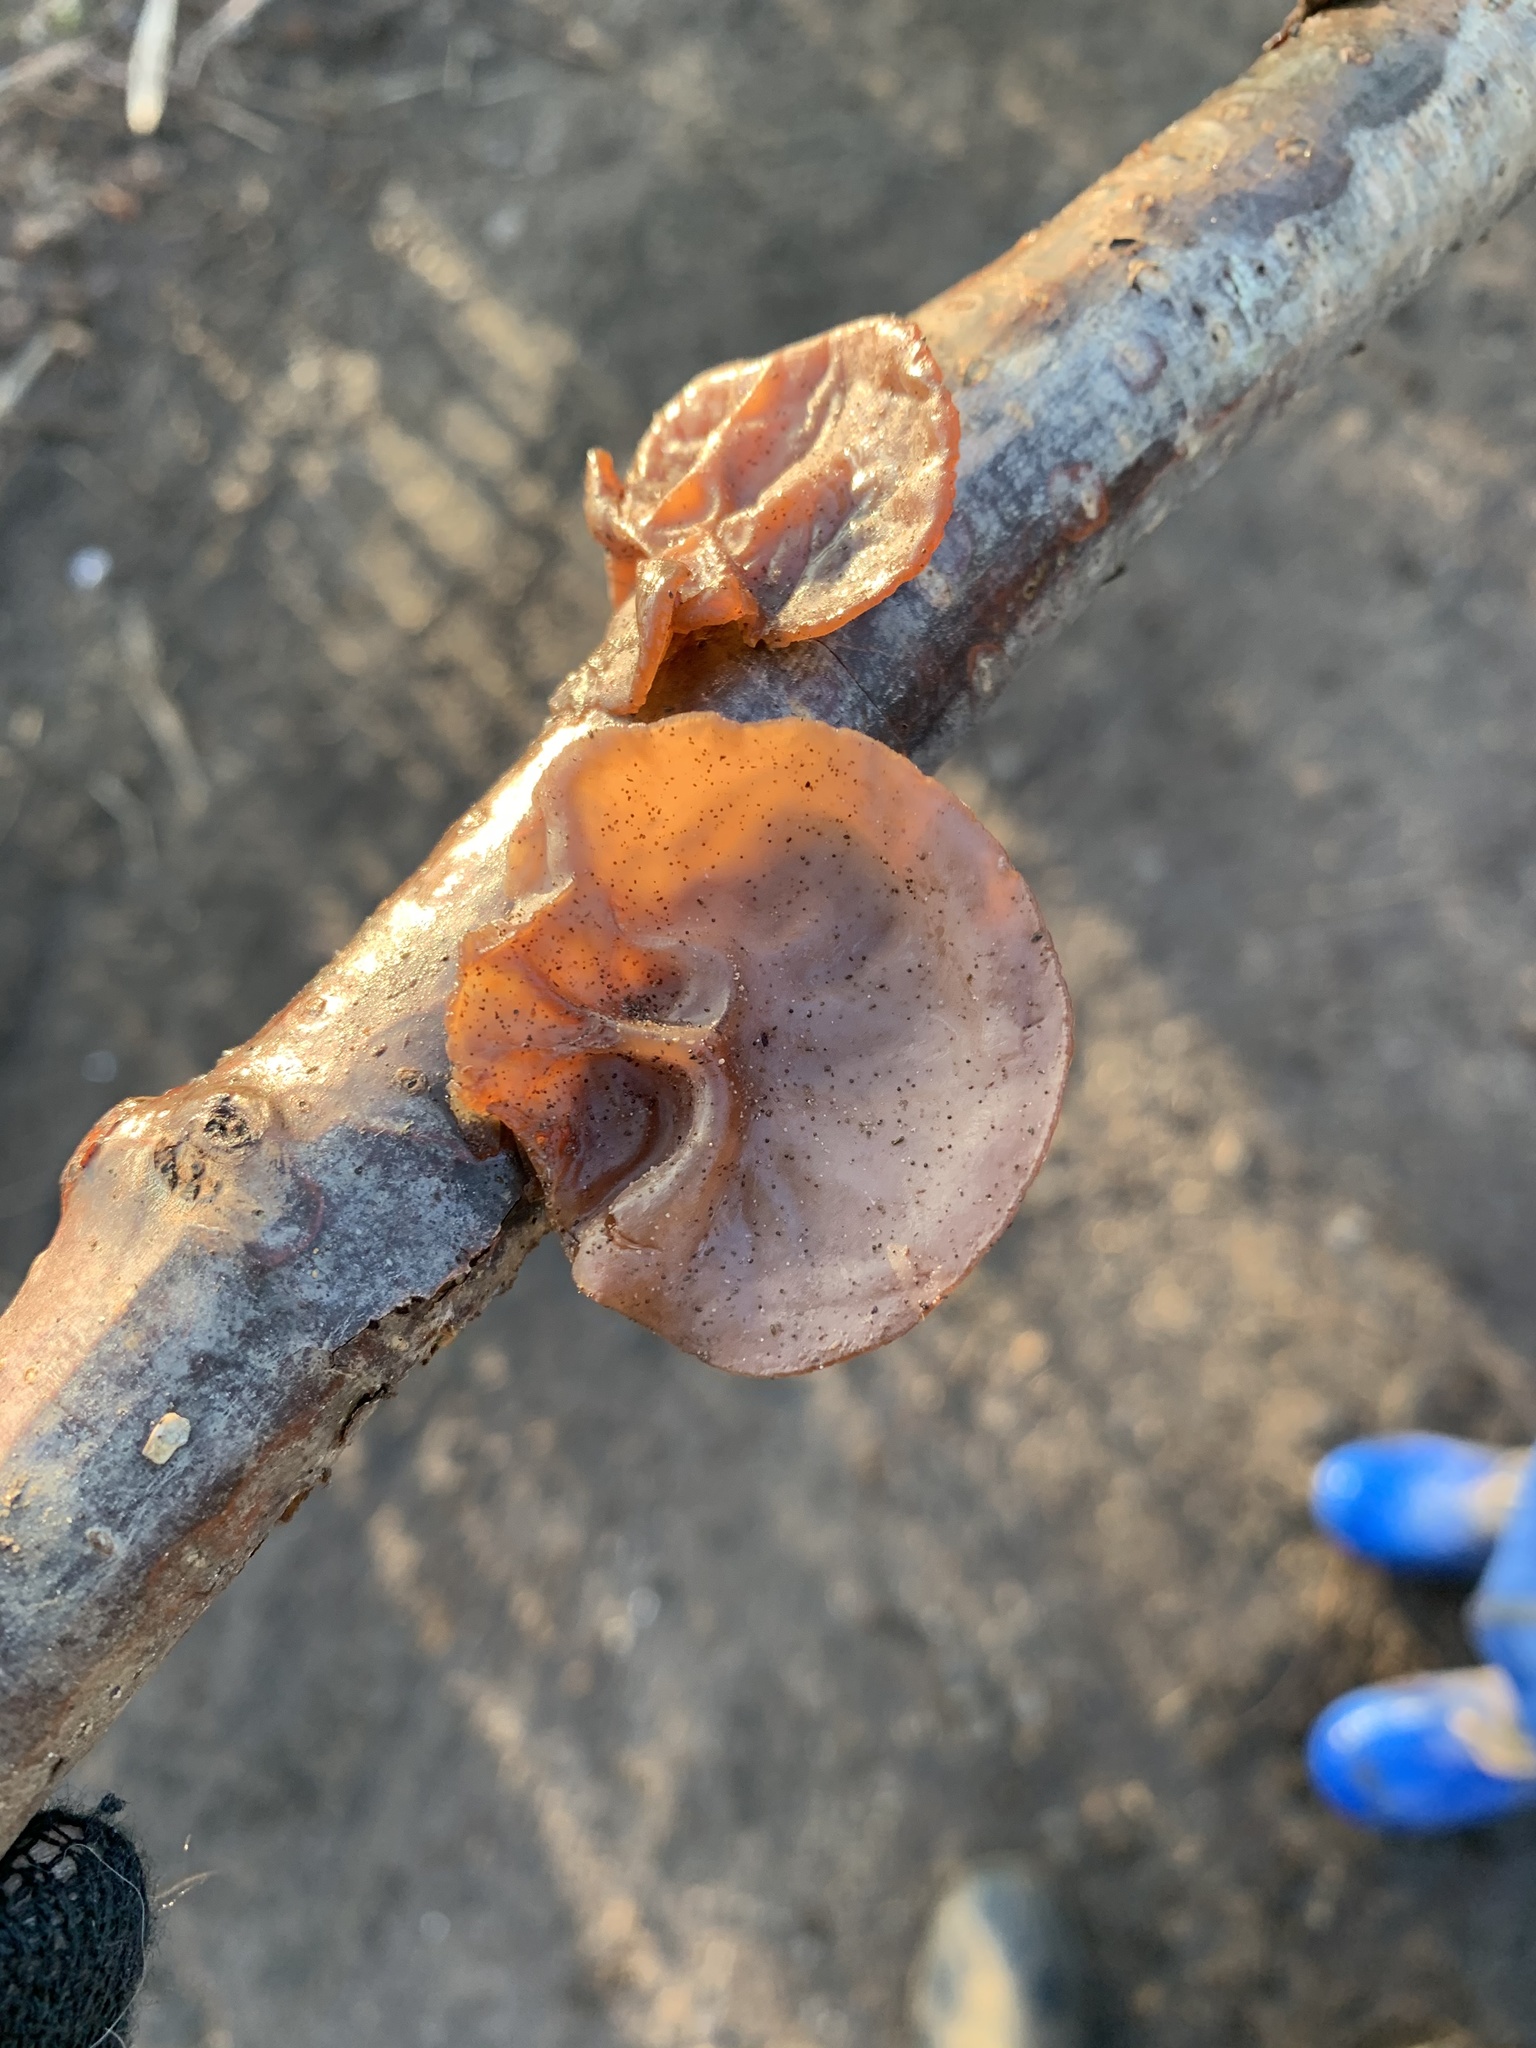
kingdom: Fungi
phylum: Basidiomycota
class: Agaricomycetes
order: Auriculariales
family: Auriculariaceae
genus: Auricularia
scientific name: Auricularia auricula-judae
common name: Jelly ear
